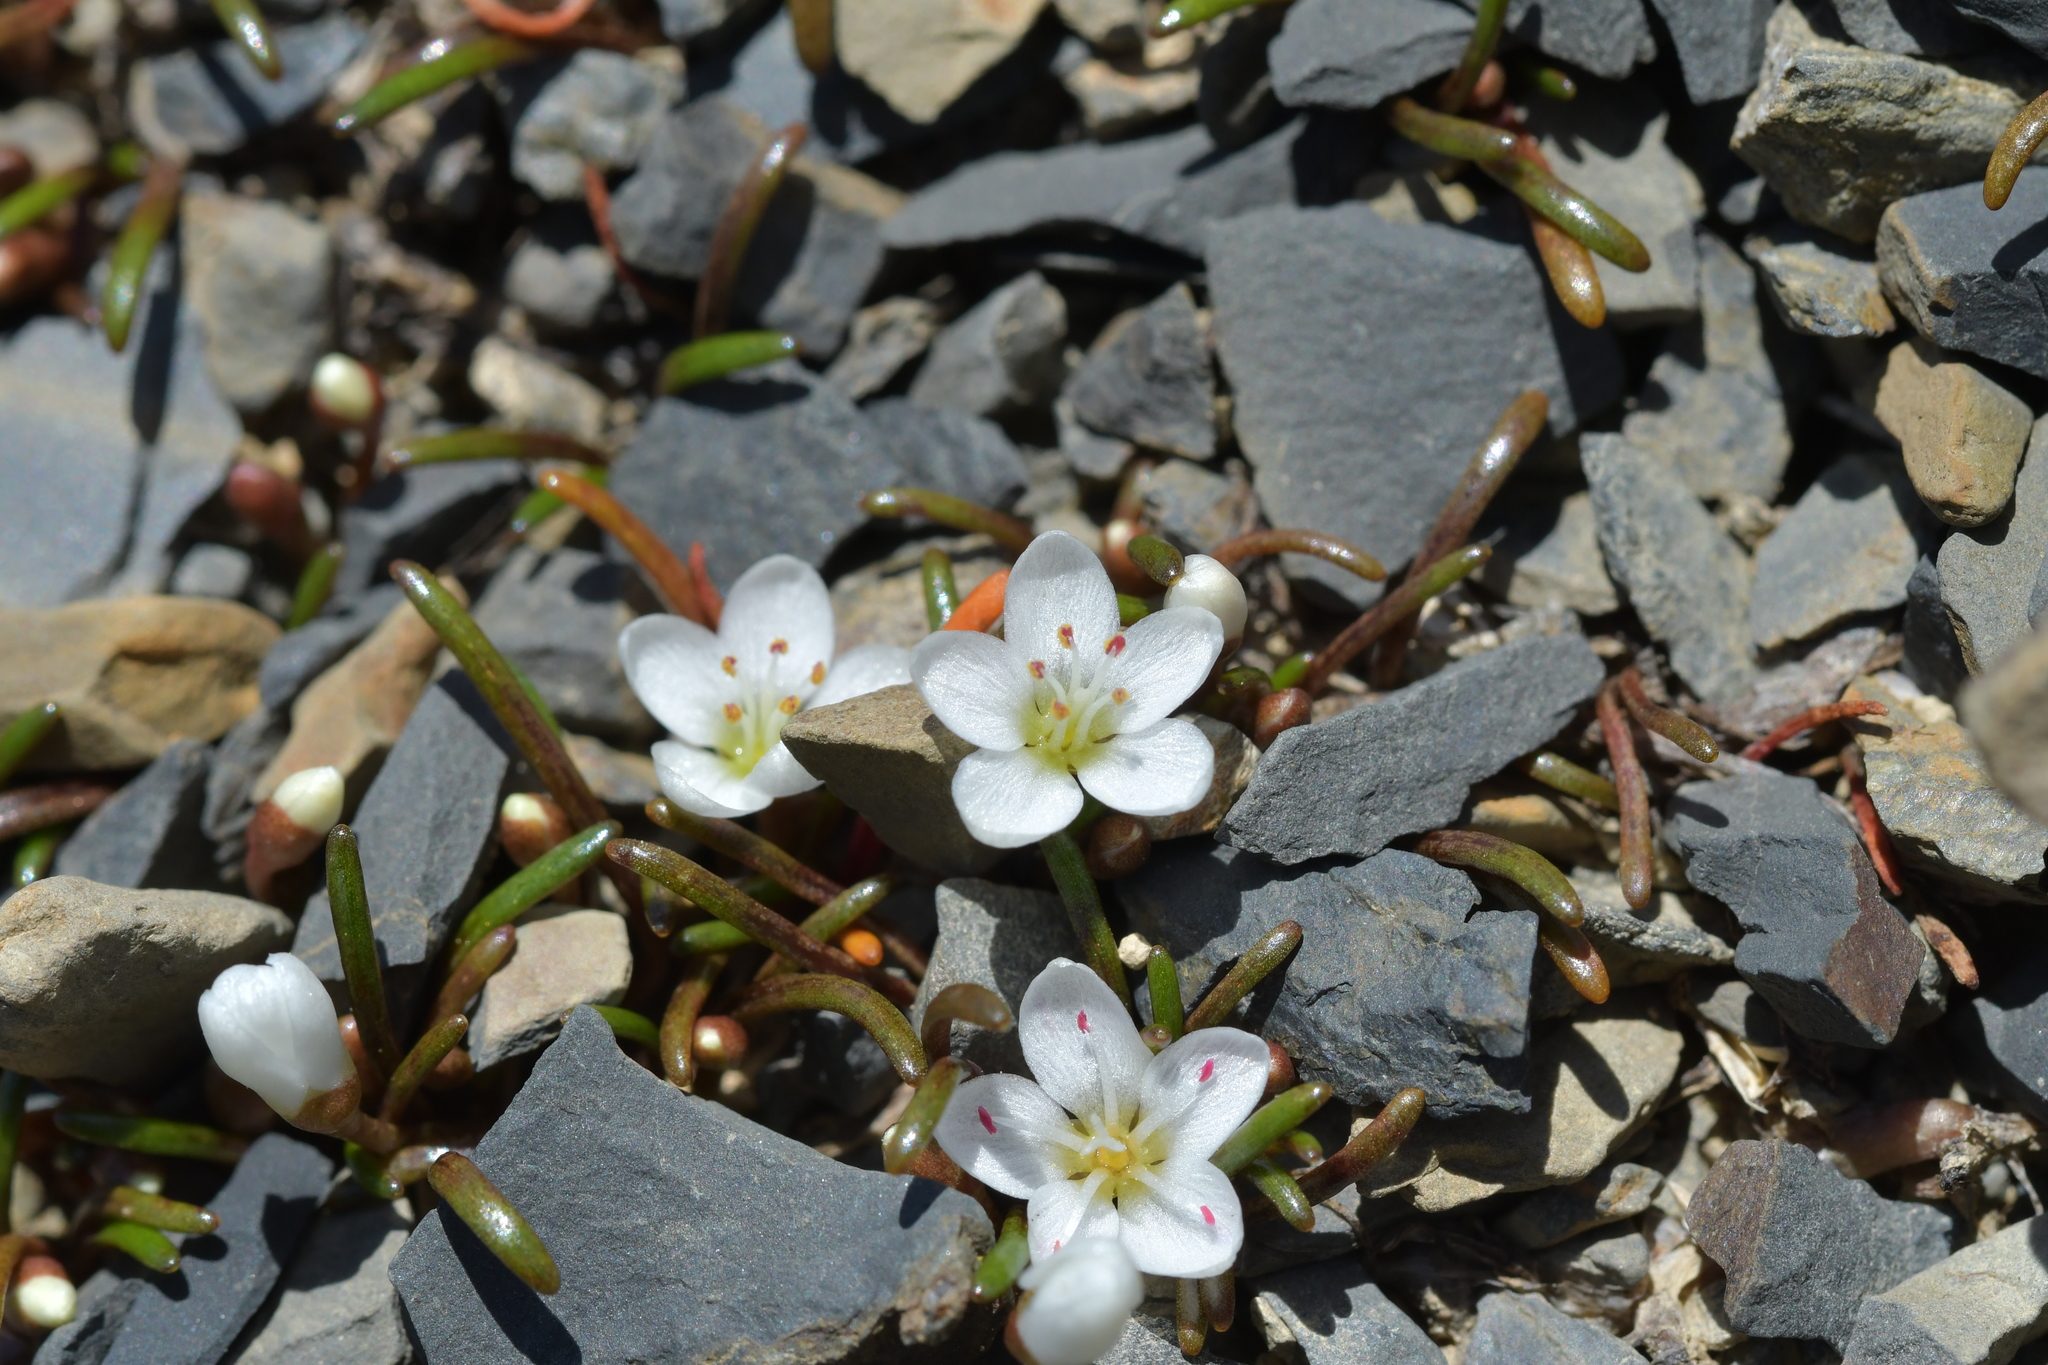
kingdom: Plantae
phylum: Tracheophyta
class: Magnoliopsida
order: Caryophyllales
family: Montiaceae
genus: Montia
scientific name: Montia calycina
